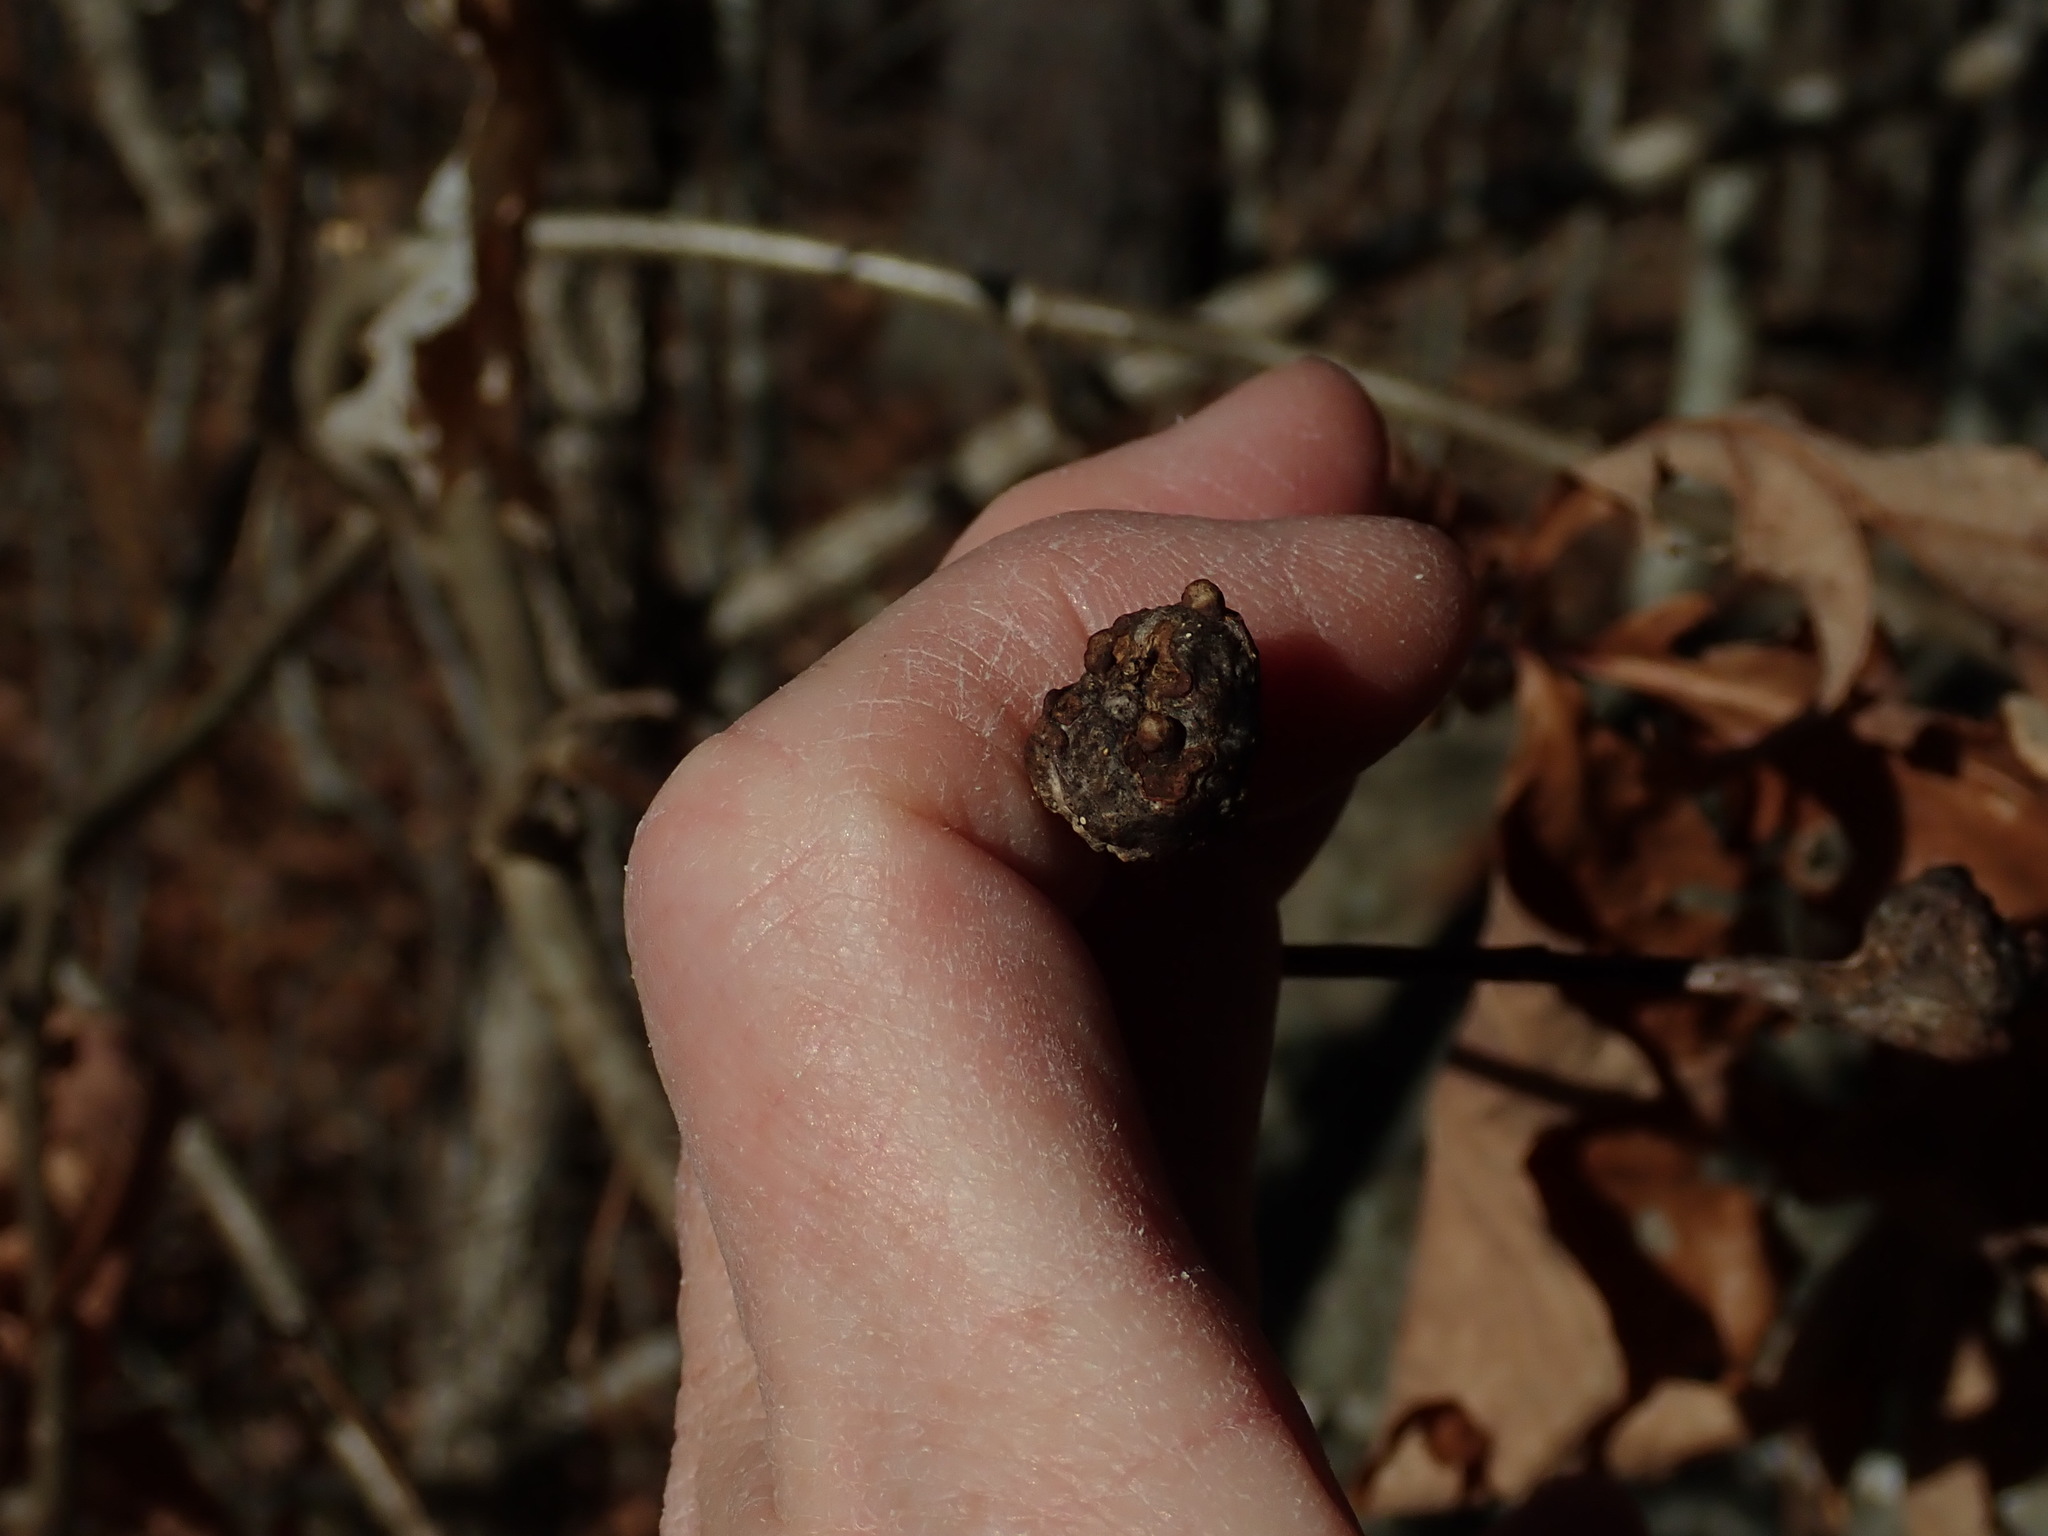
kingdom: Animalia
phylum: Arthropoda
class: Insecta
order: Hymenoptera
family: Cynipidae
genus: Callirhytis
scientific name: Callirhytis clavula
